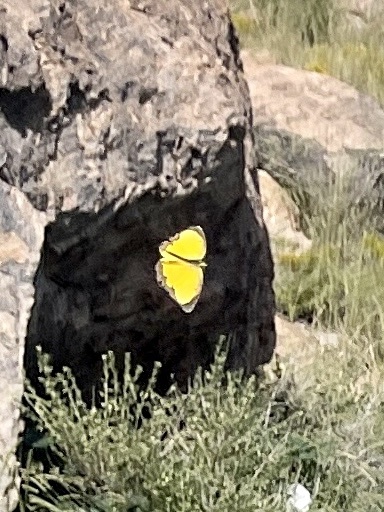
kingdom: Animalia
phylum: Arthropoda
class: Insecta
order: Lepidoptera
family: Pieridae
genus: Abaeis
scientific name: Abaeis nicippe
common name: Sleepy orange
